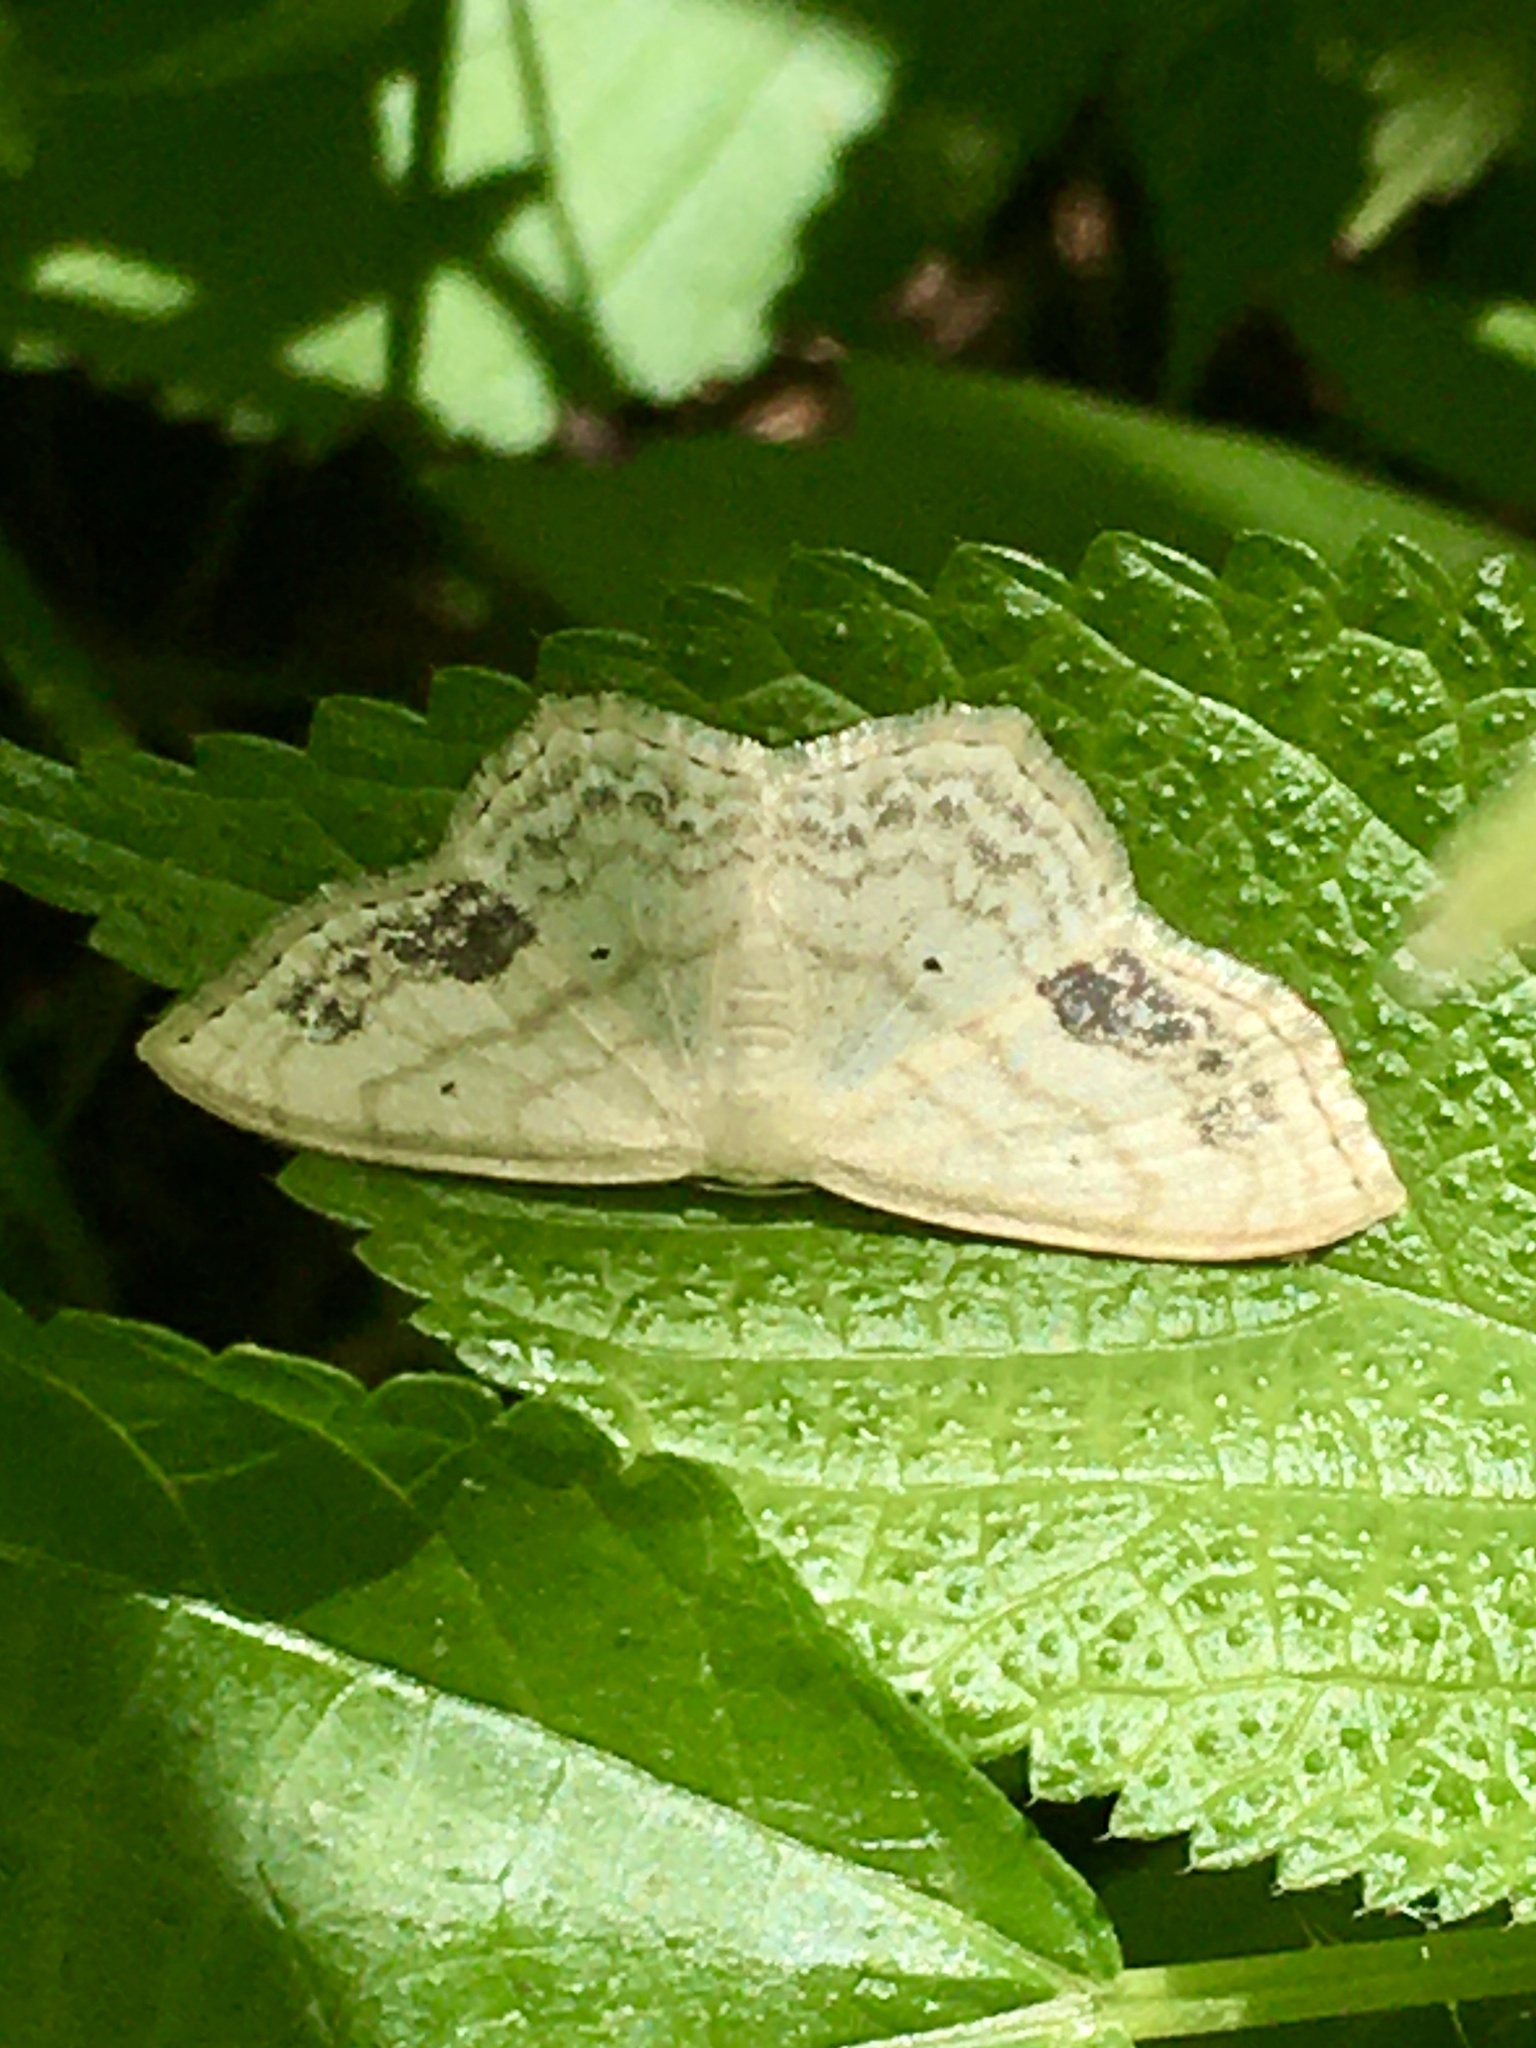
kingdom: Animalia
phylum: Arthropoda
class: Insecta
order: Lepidoptera
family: Geometridae
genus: Scopula
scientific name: Scopula limboundata
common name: Large lace border
